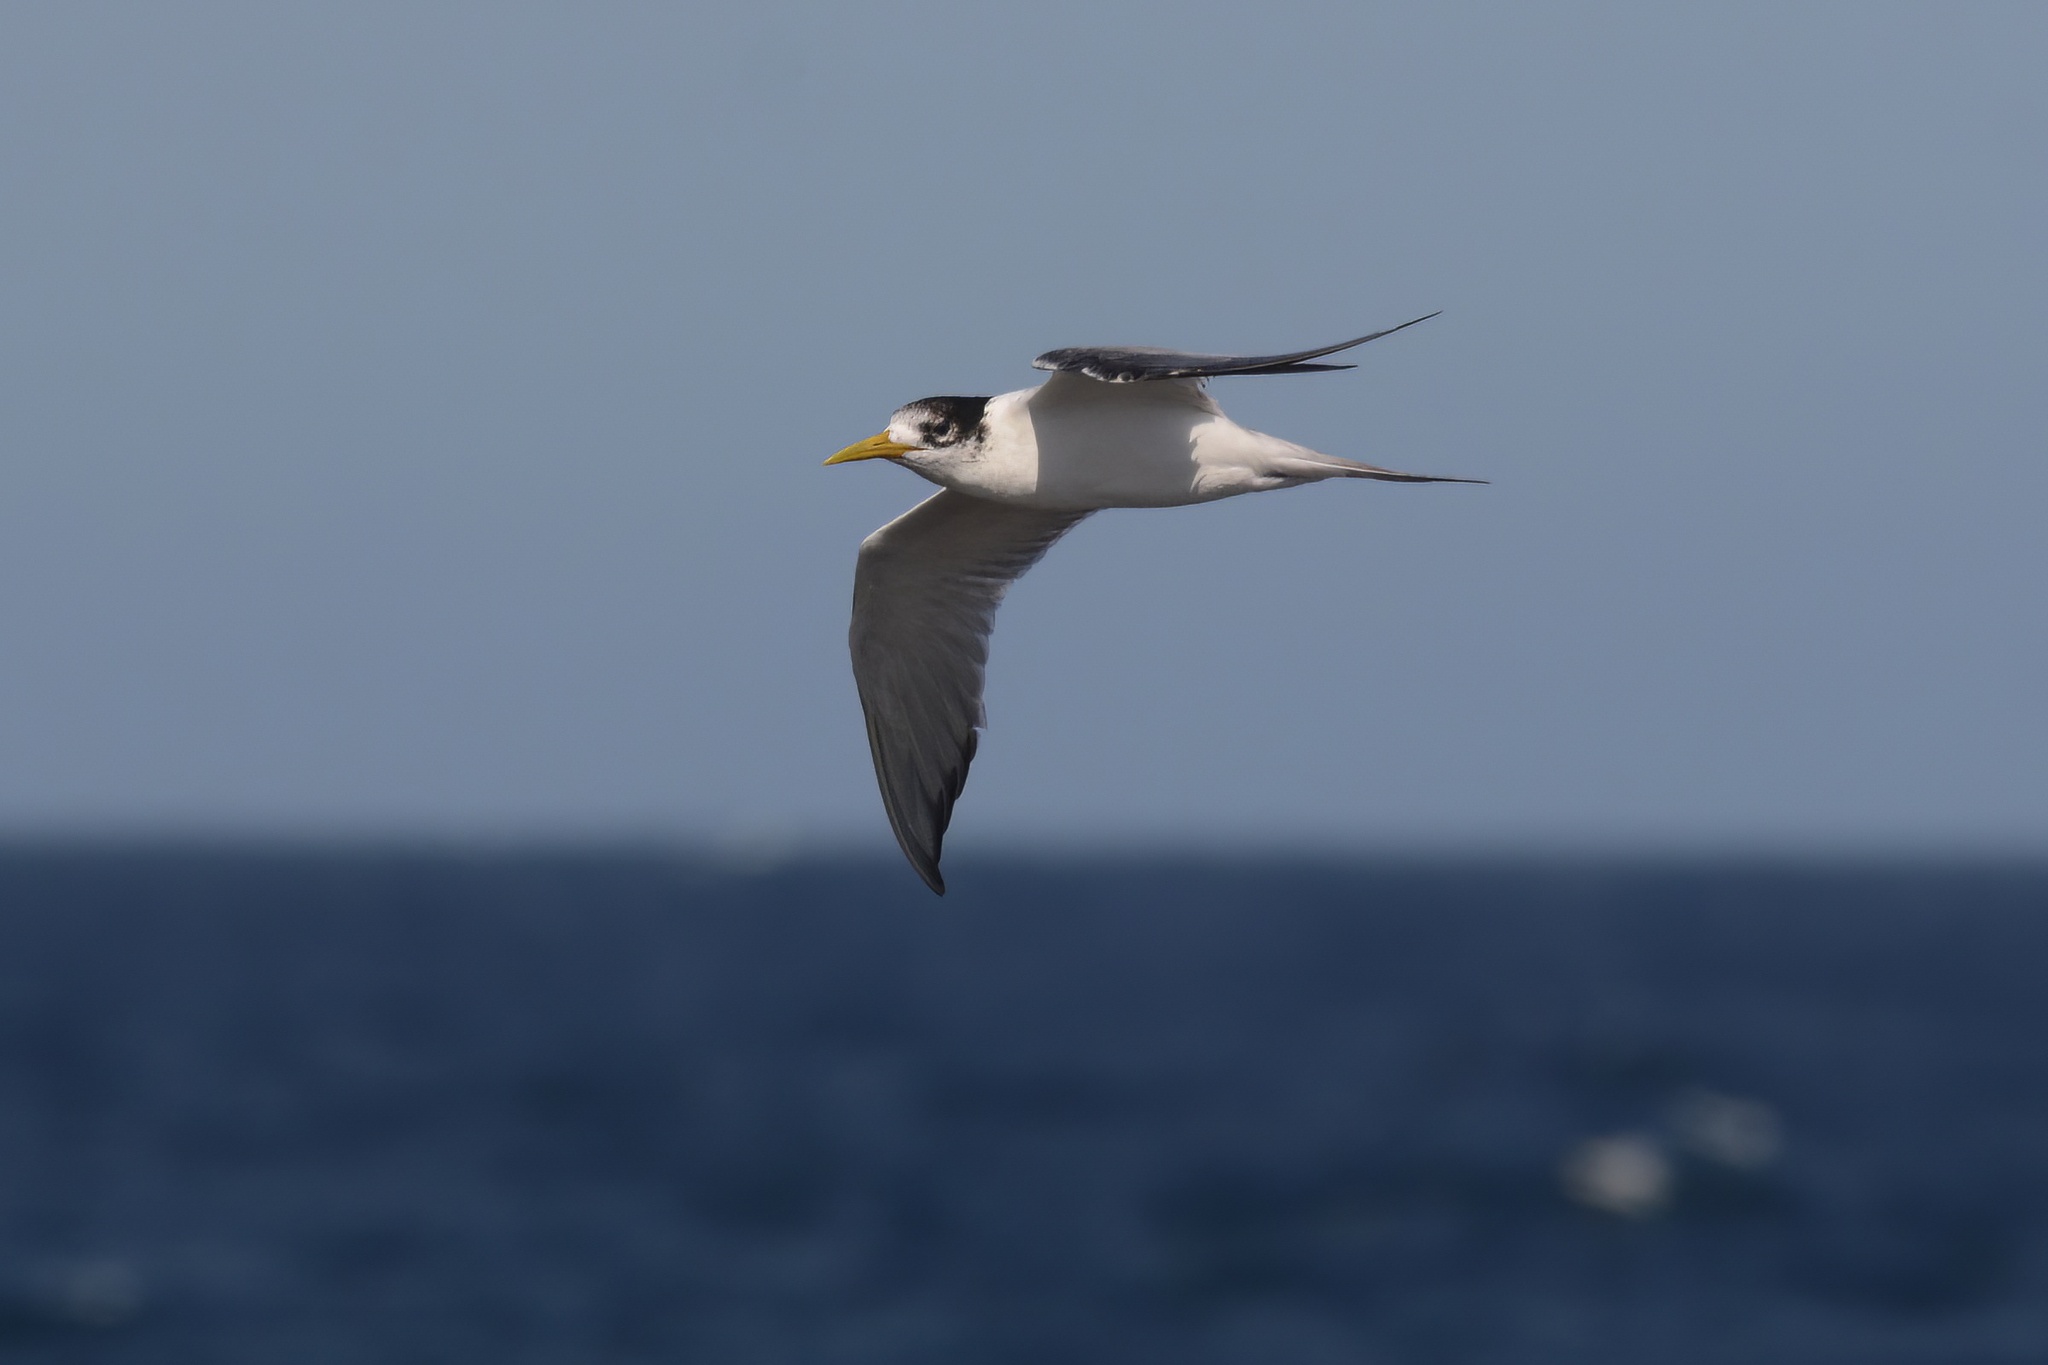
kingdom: Animalia
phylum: Chordata
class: Aves
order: Charadriiformes
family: Laridae
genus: Thalasseus
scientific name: Thalasseus bergii
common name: Greater crested tern
